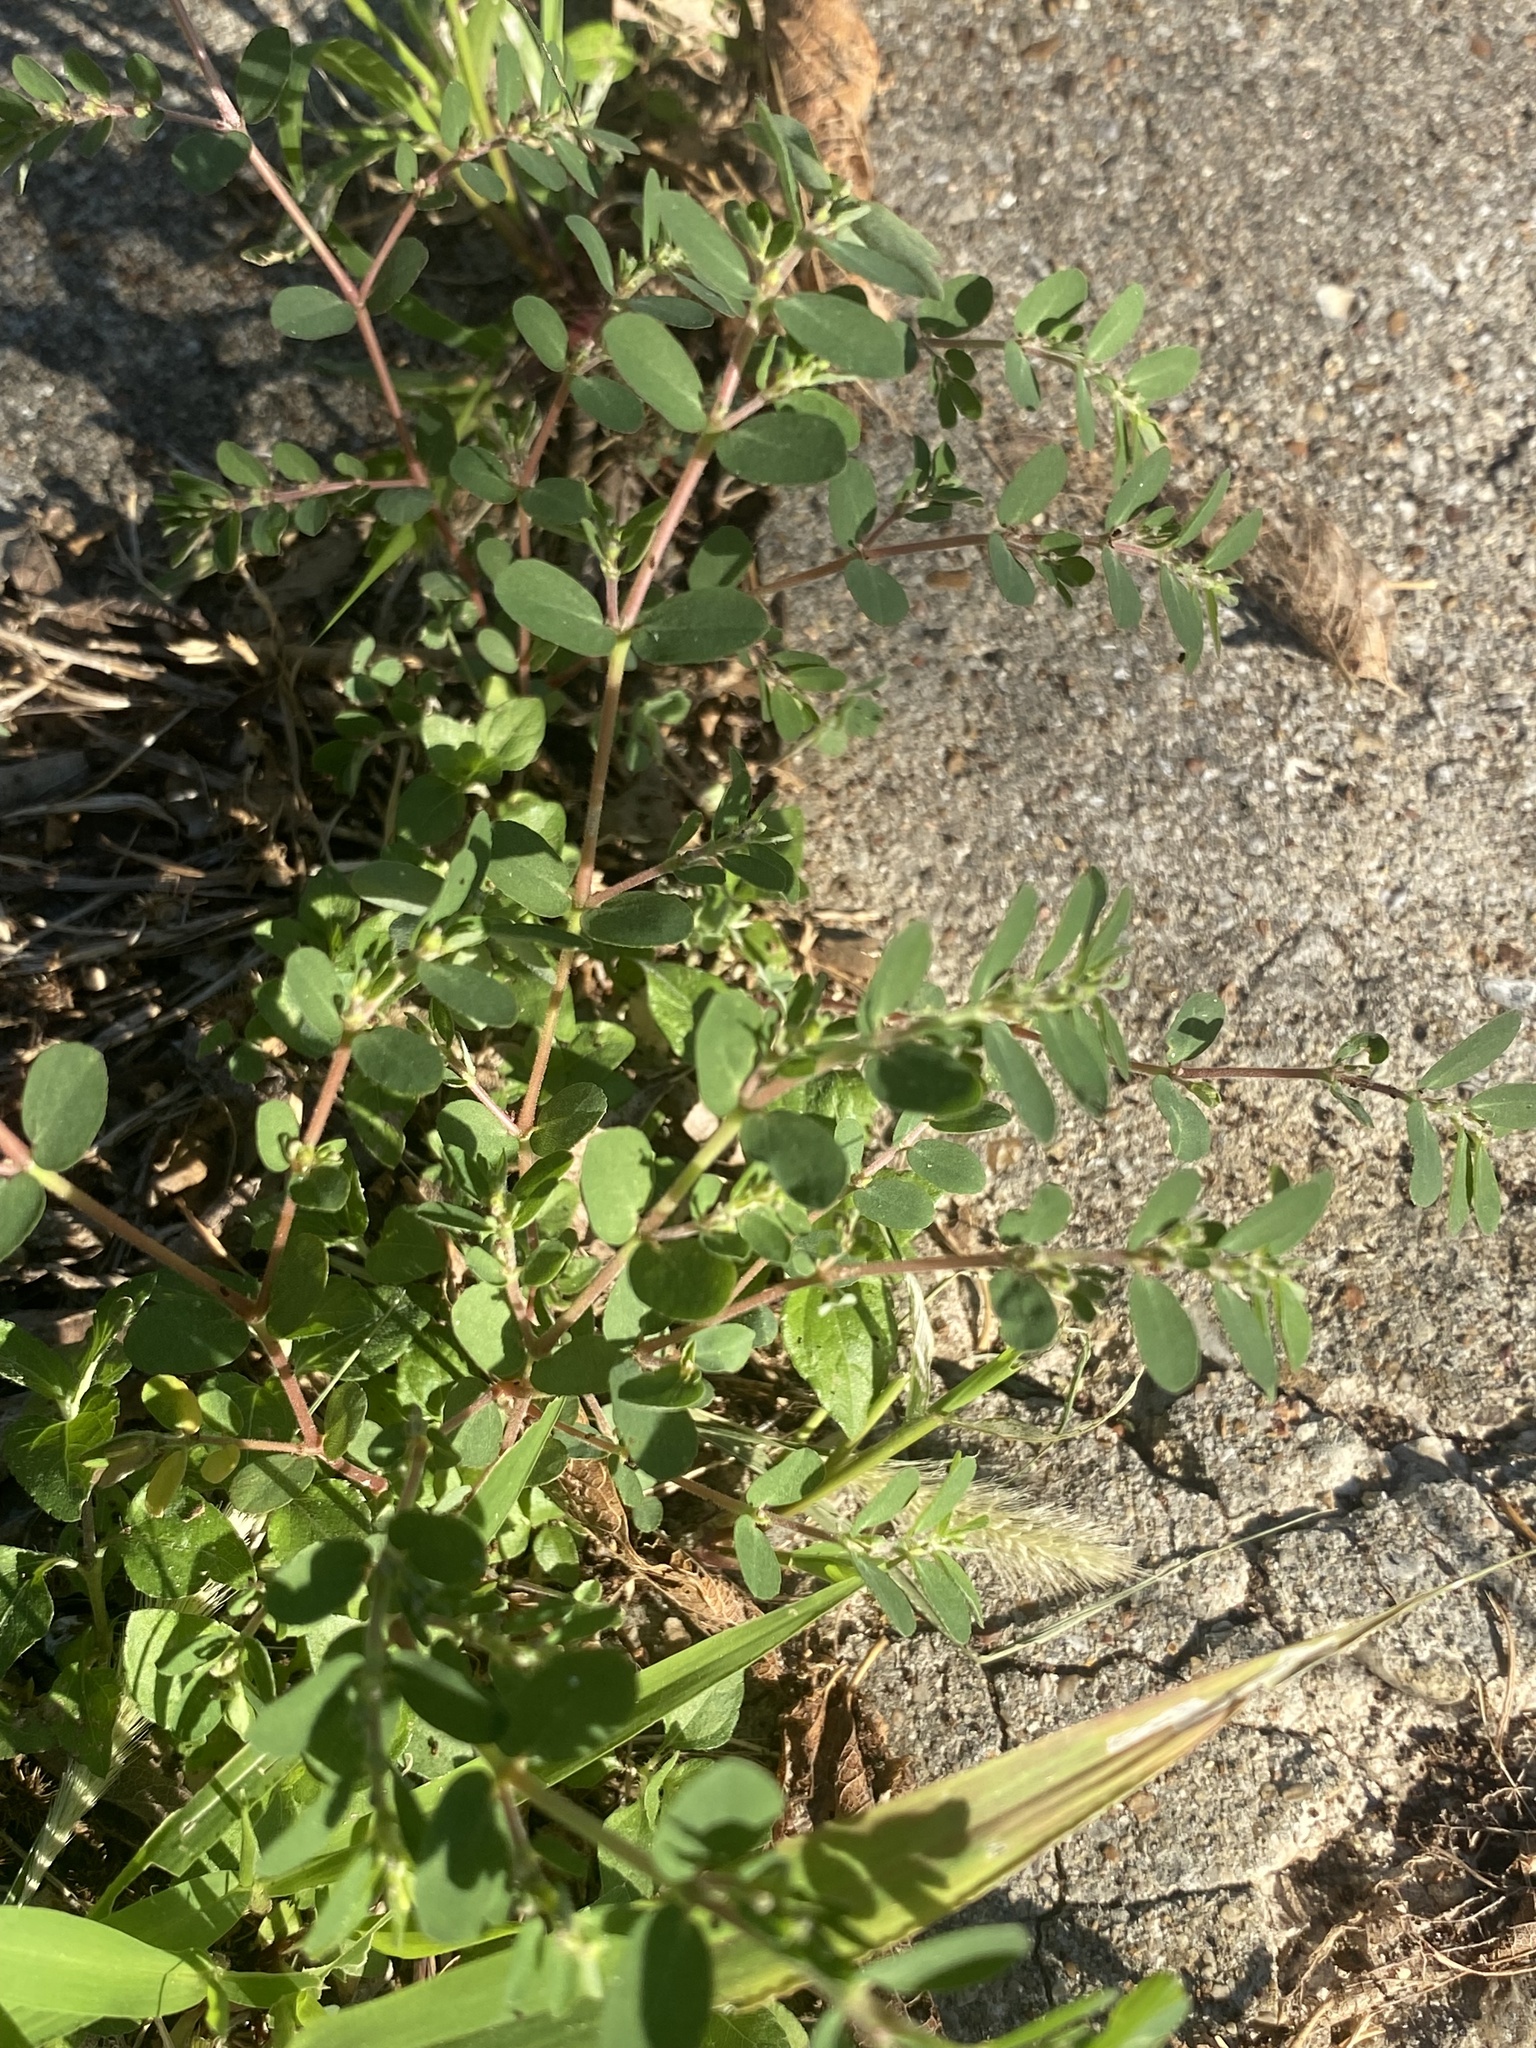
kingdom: Plantae
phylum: Tracheophyta
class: Magnoliopsida
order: Malpighiales
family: Euphorbiaceae
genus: Euphorbia
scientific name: Euphorbia prostrata
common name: Prostrate sandmat
